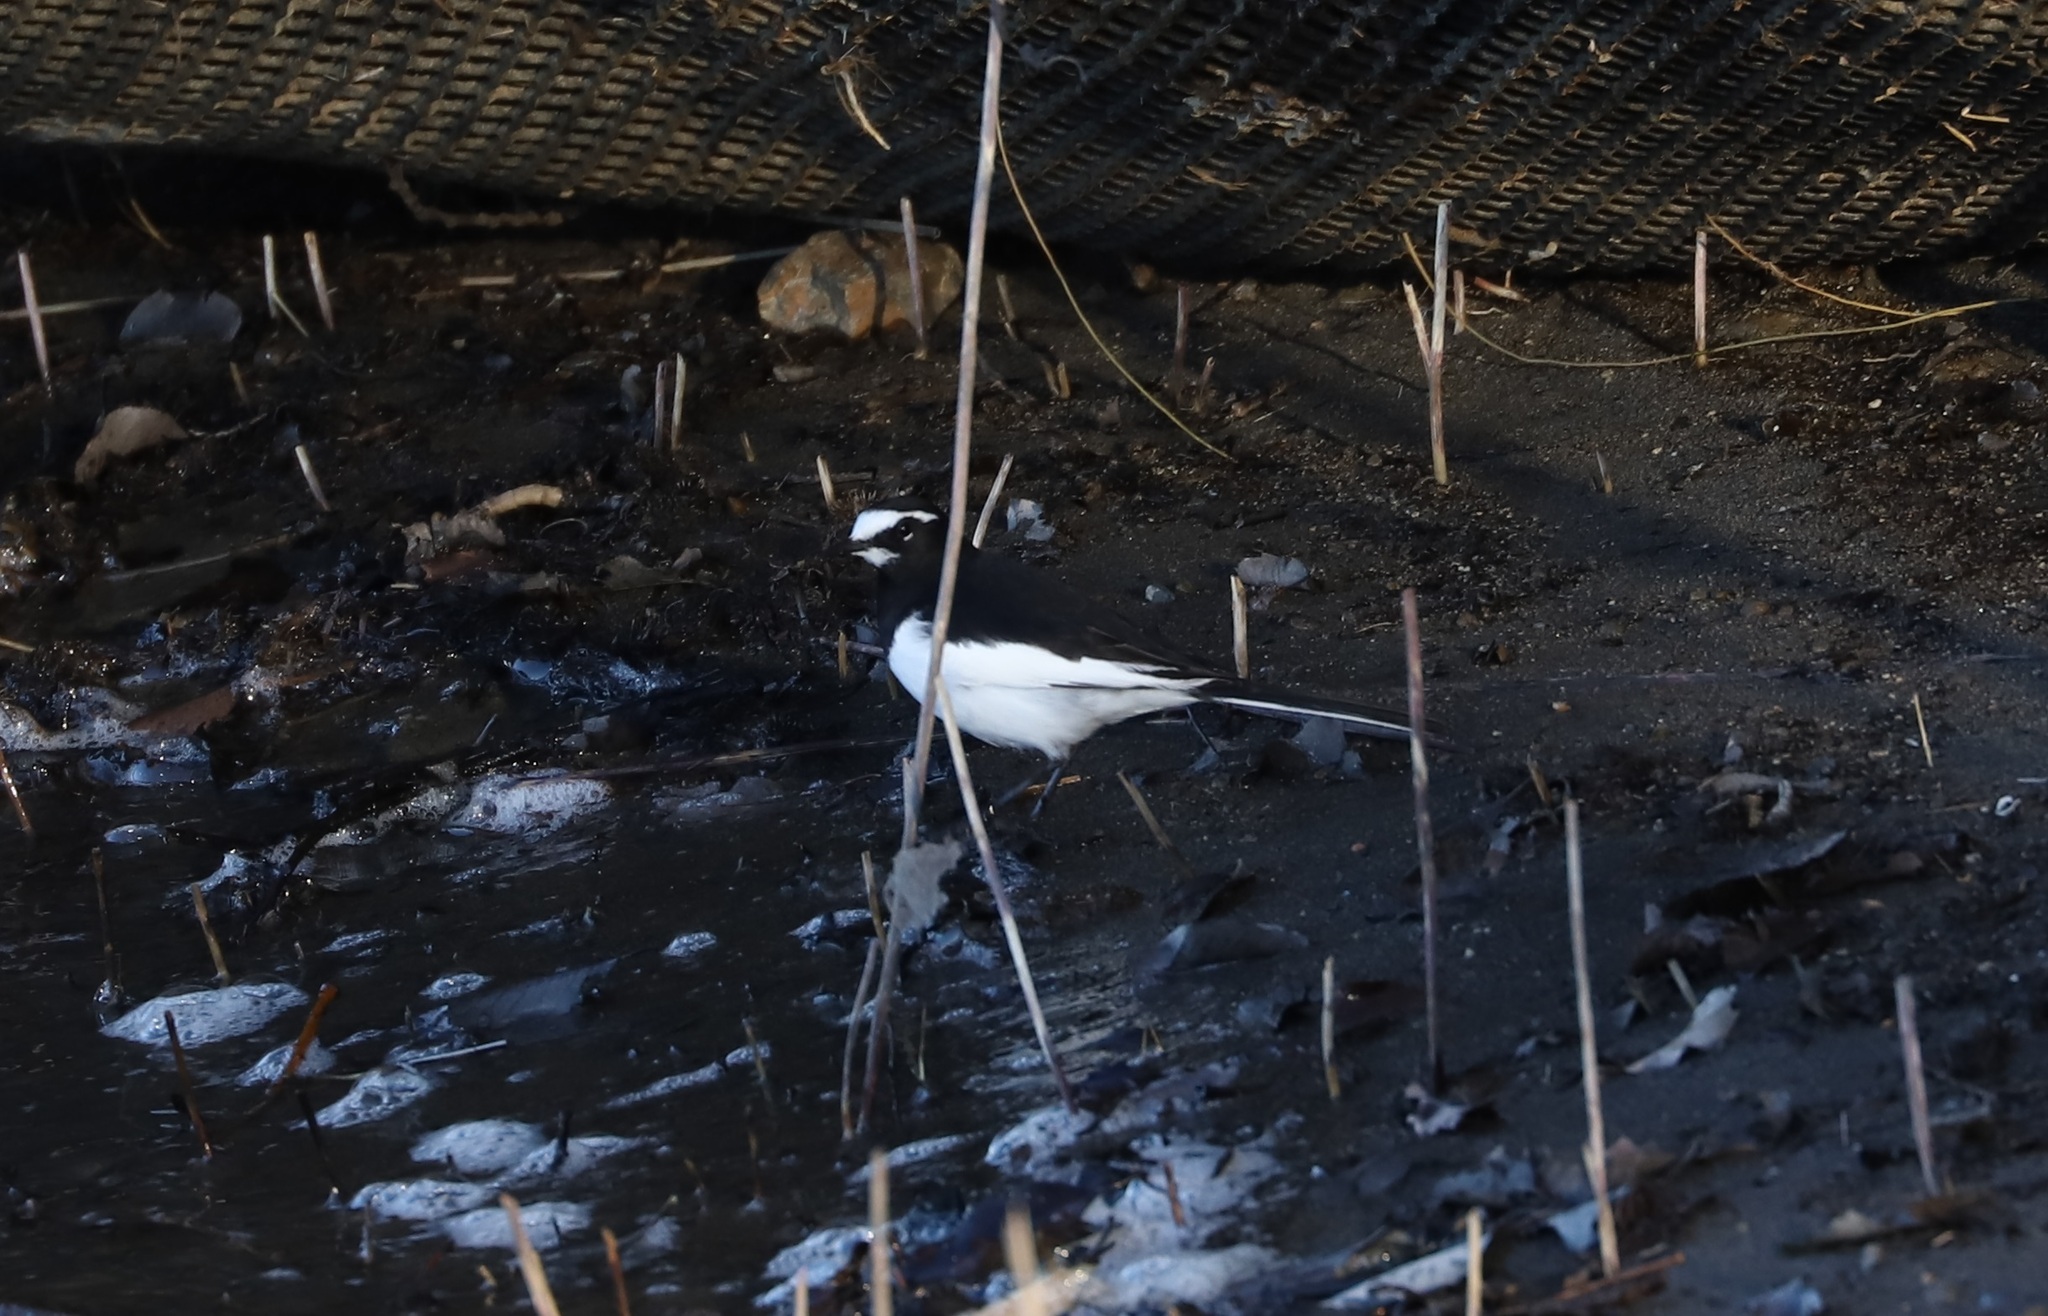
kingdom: Animalia
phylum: Chordata
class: Aves
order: Passeriformes
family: Motacillidae
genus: Motacilla
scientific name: Motacilla grandis
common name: Japanese wagtail
